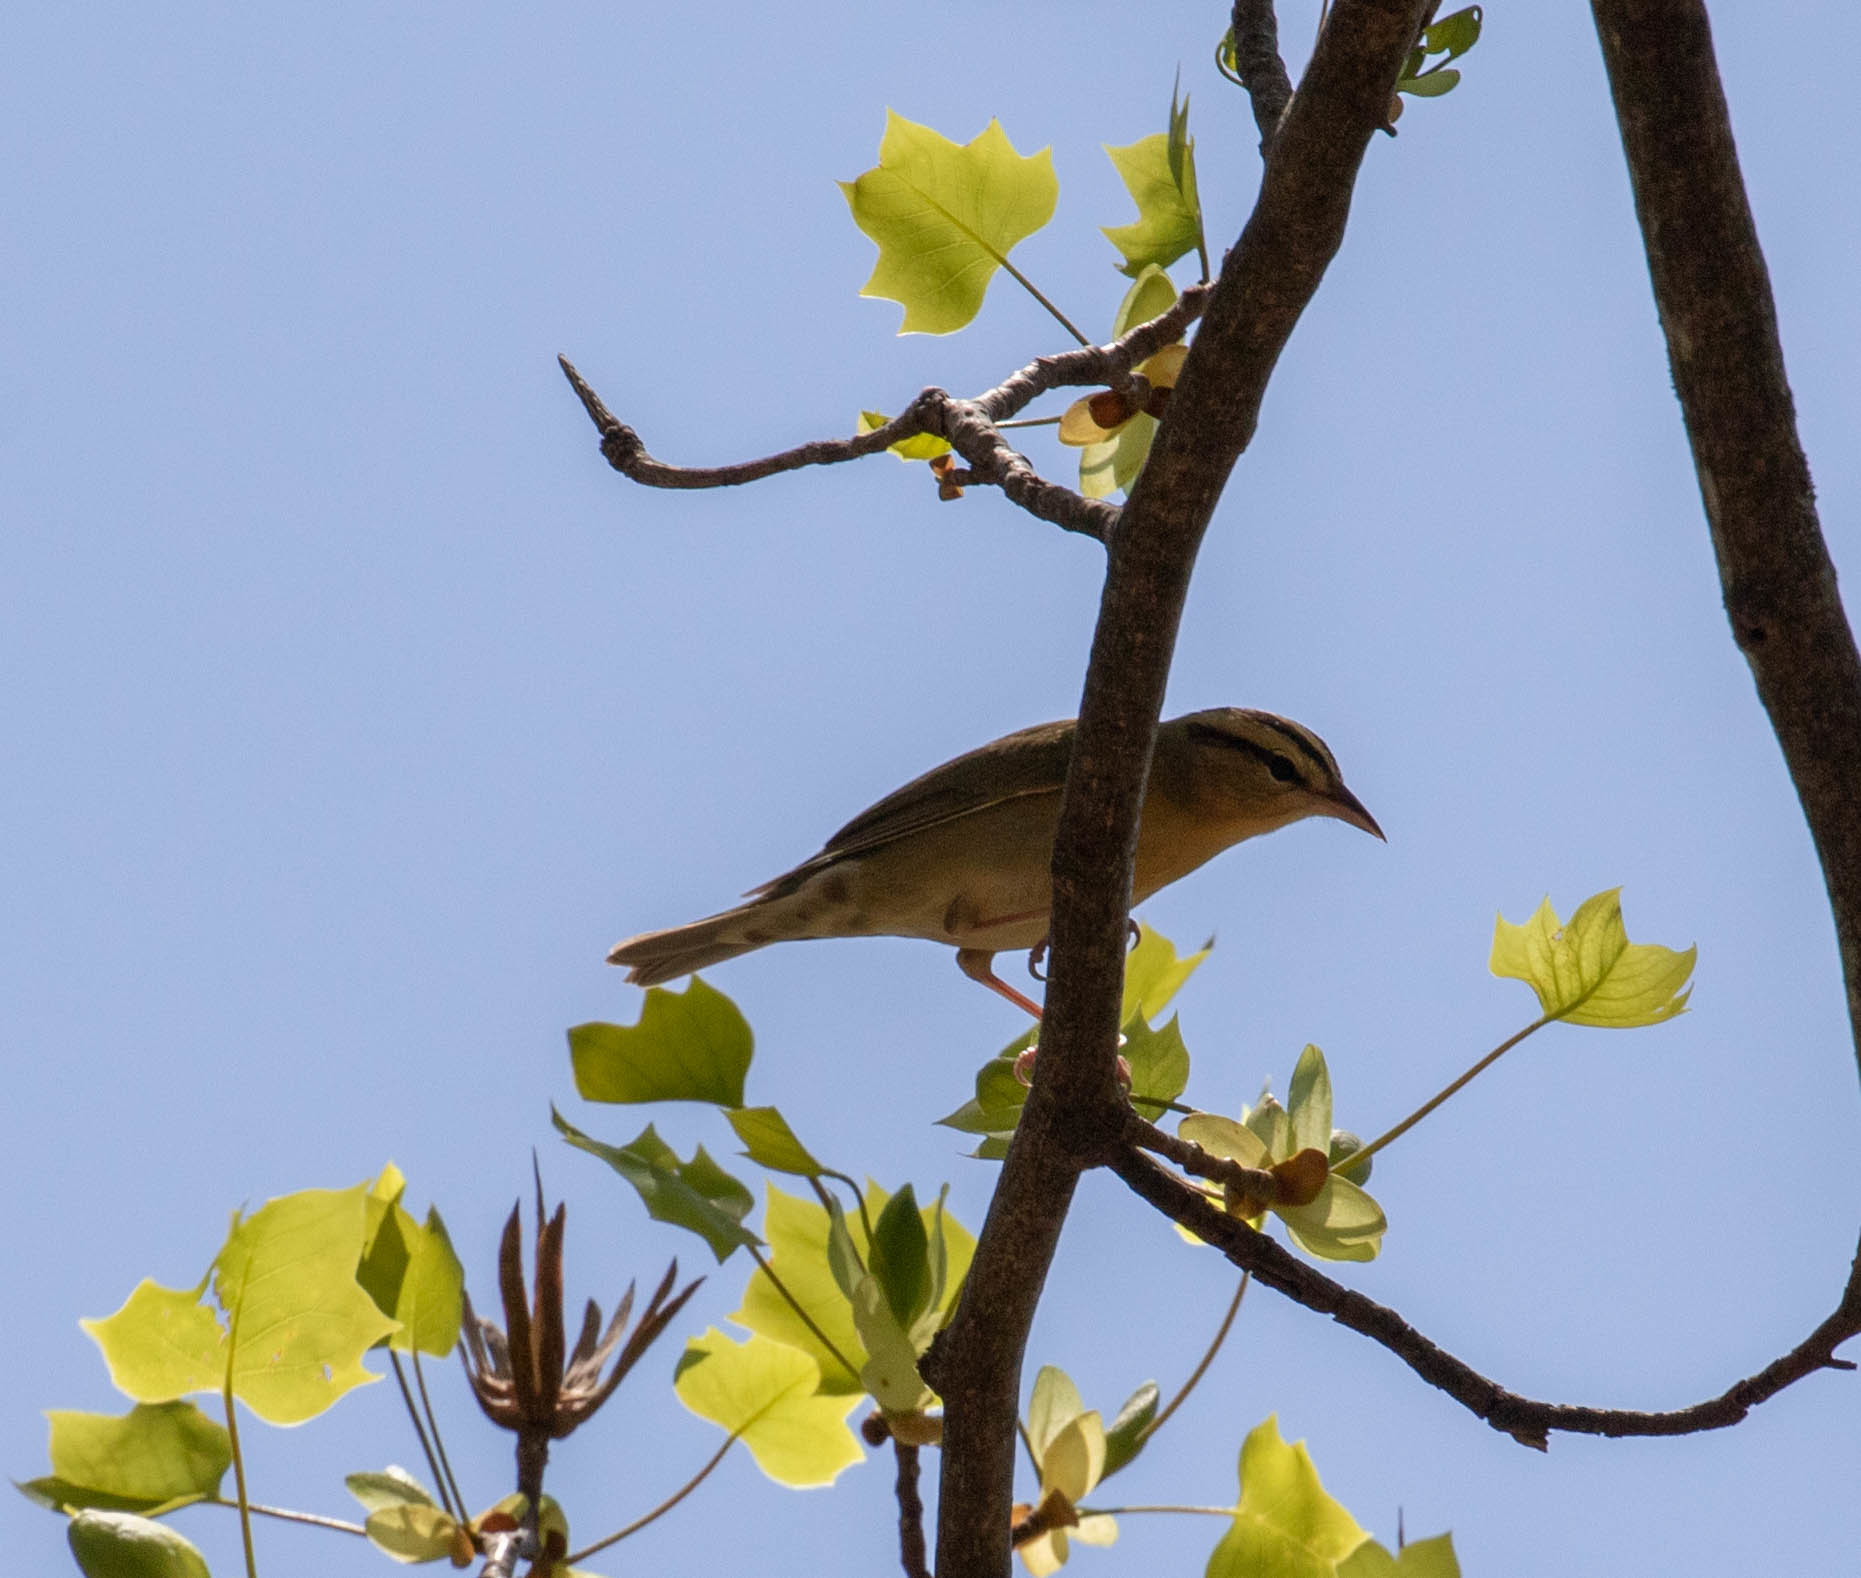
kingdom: Animalia
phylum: Chordata
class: Aves
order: Passeriformes
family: Parulidae
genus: Helmitheros
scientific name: Helmitheros vermivorum
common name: Worm-eating warbler
